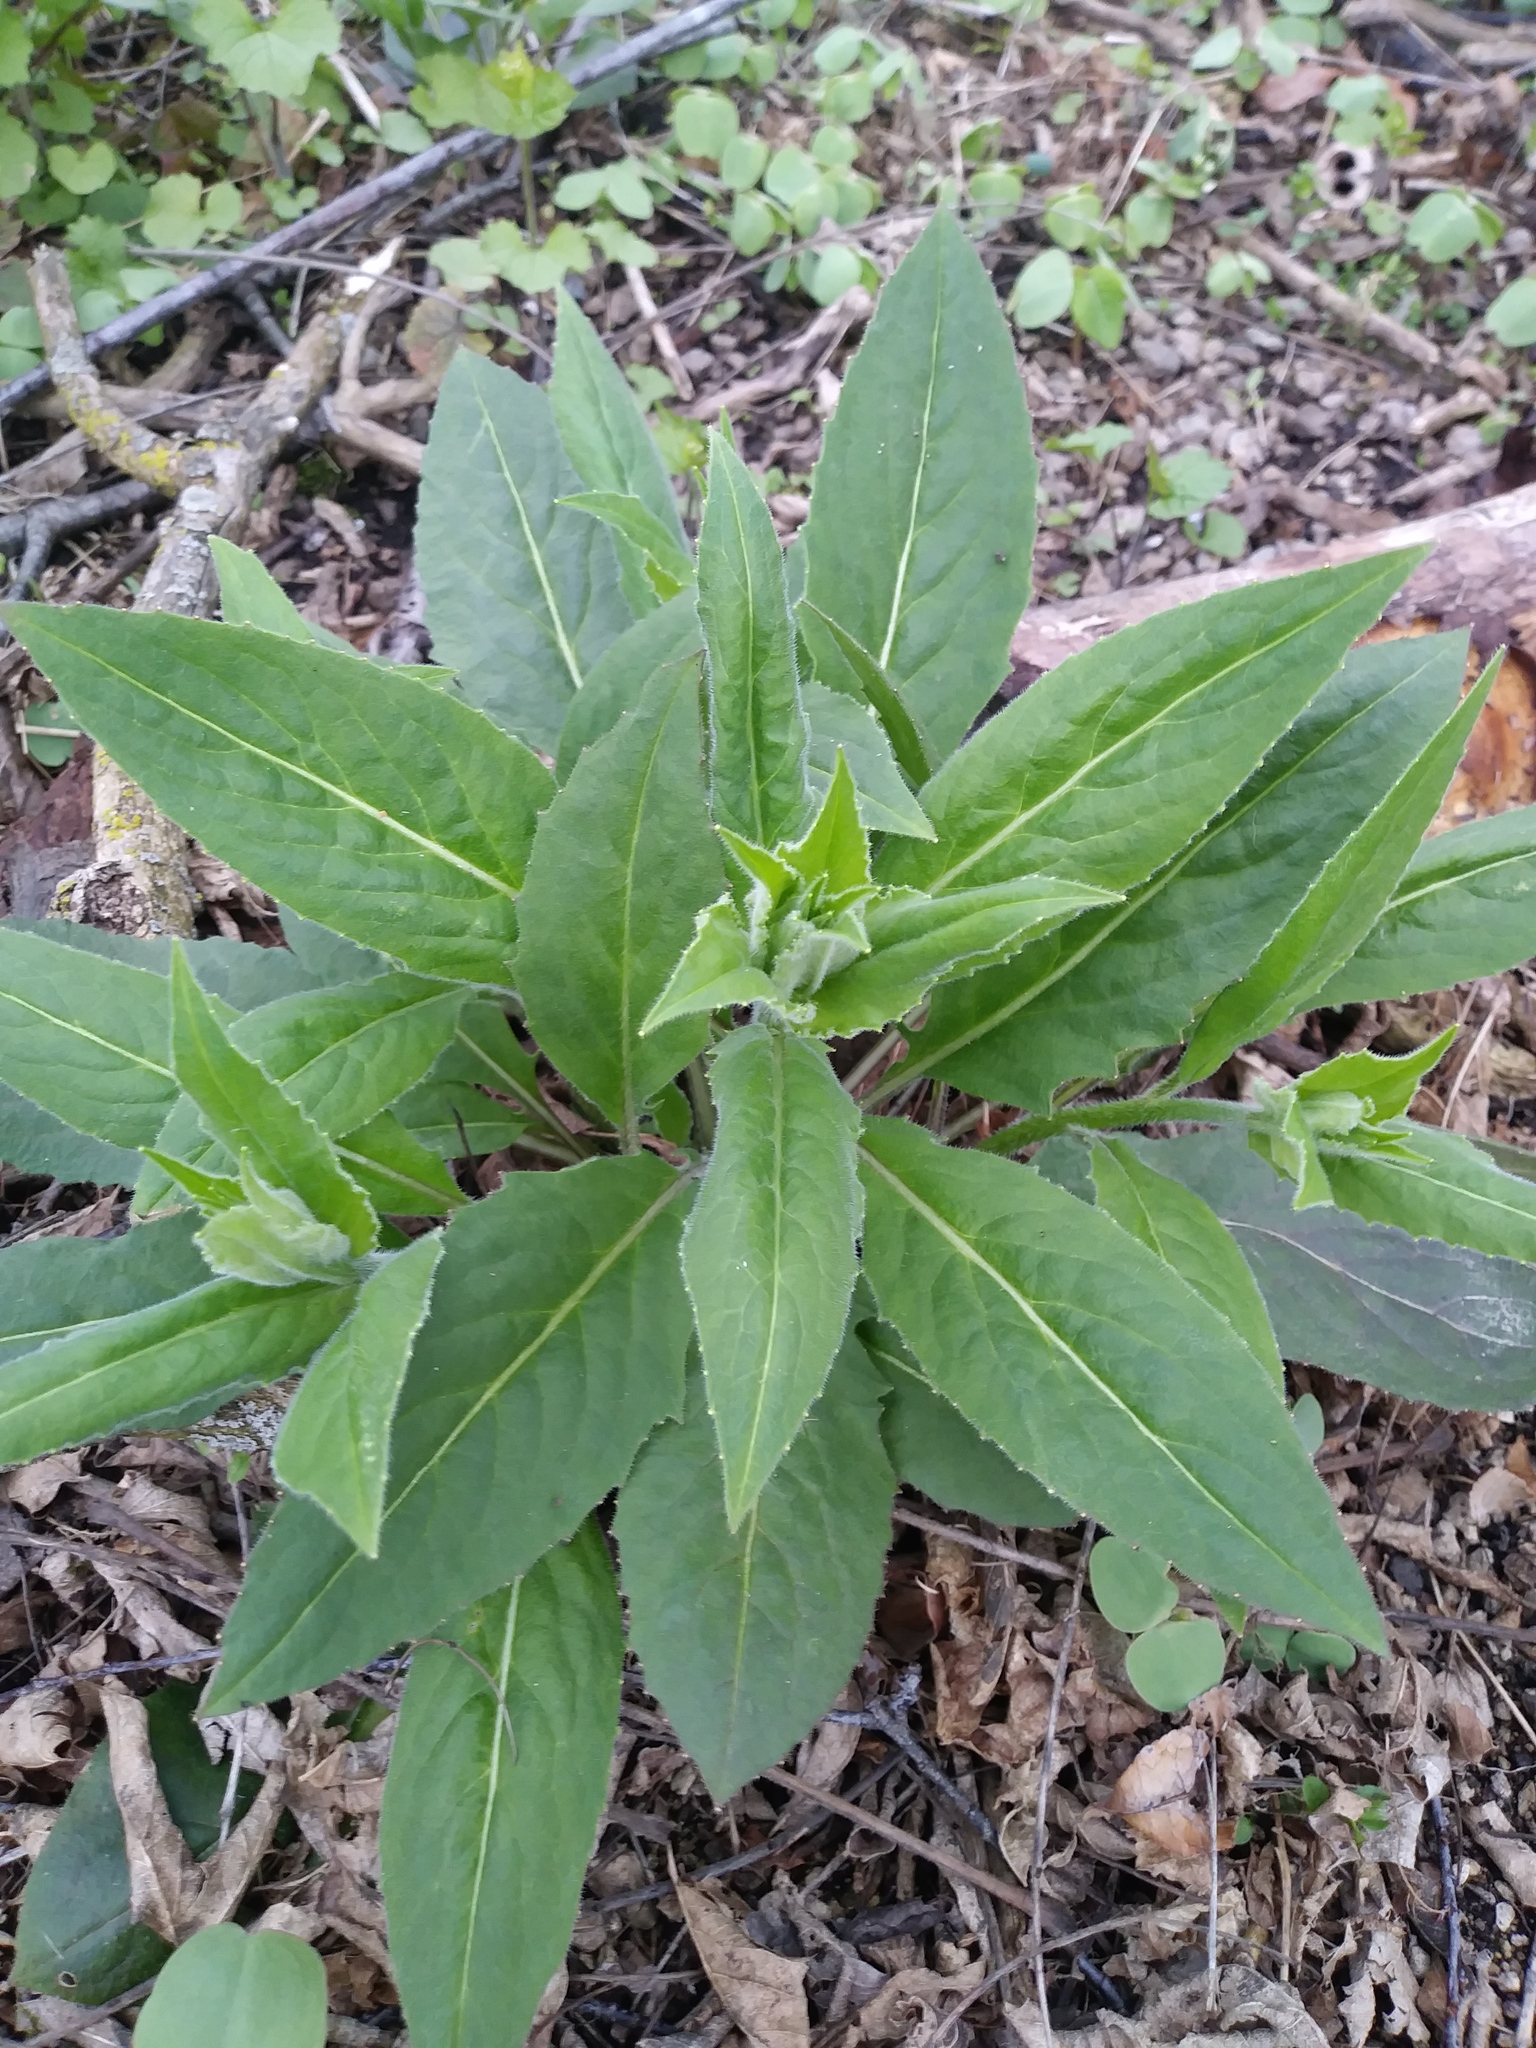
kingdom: Plantae
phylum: Tracheophyta
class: Magnoliopsida
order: Brassicales
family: Brassicaceae
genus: Hesperis
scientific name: Hesperis matronalis
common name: Dame's-violet
